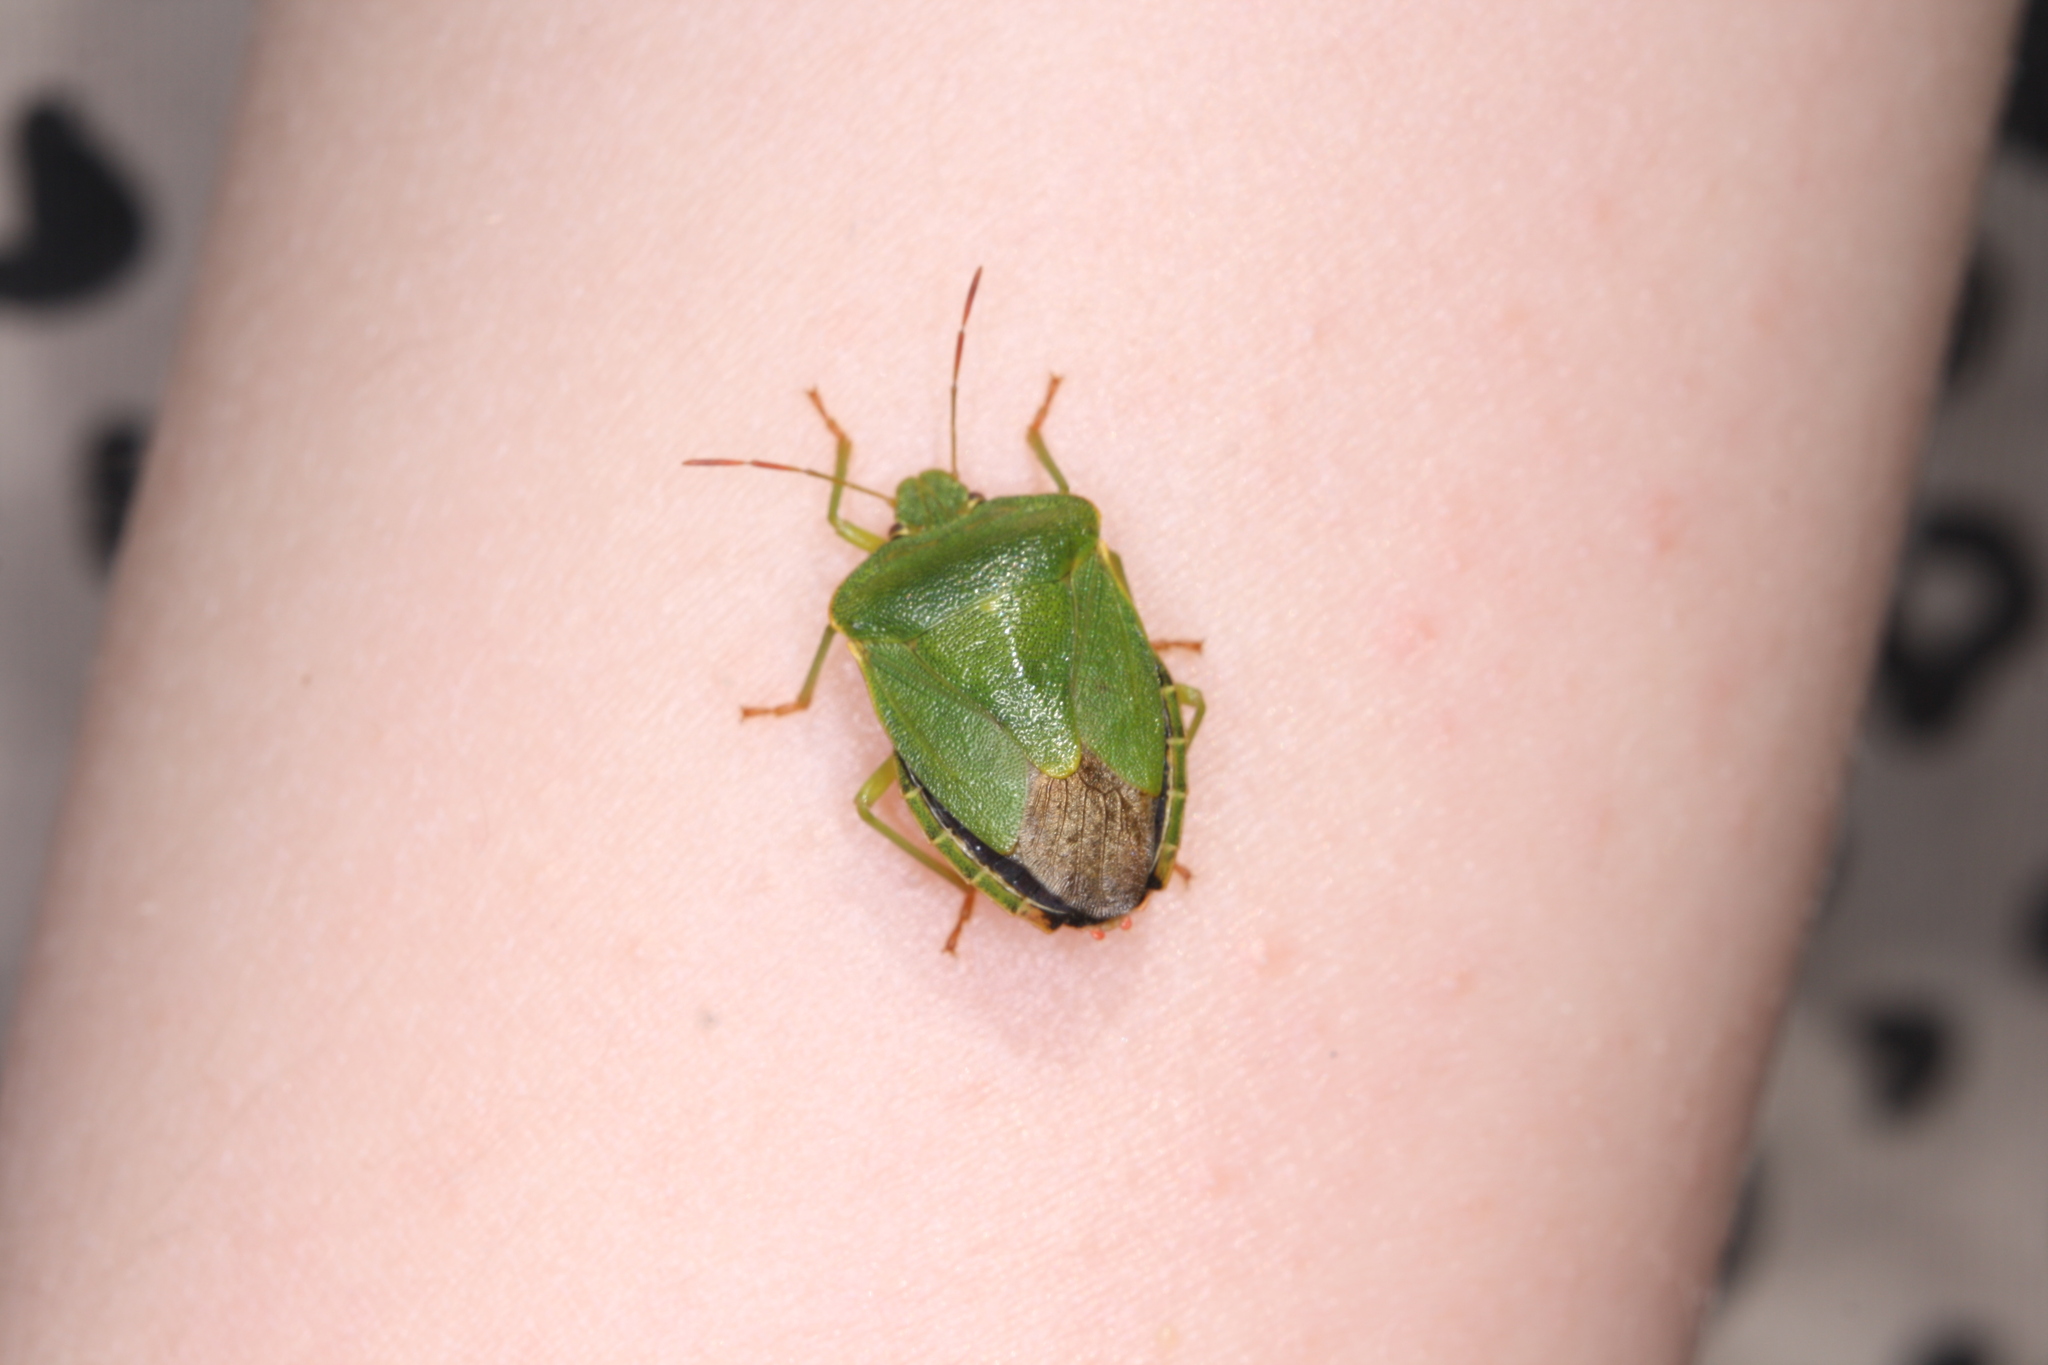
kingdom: Animalia
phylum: Arthropoda
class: Insecta
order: Hemiptera
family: Pentatomidae
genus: Palomena
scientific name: Palomena prasina
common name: Green shieldbug
